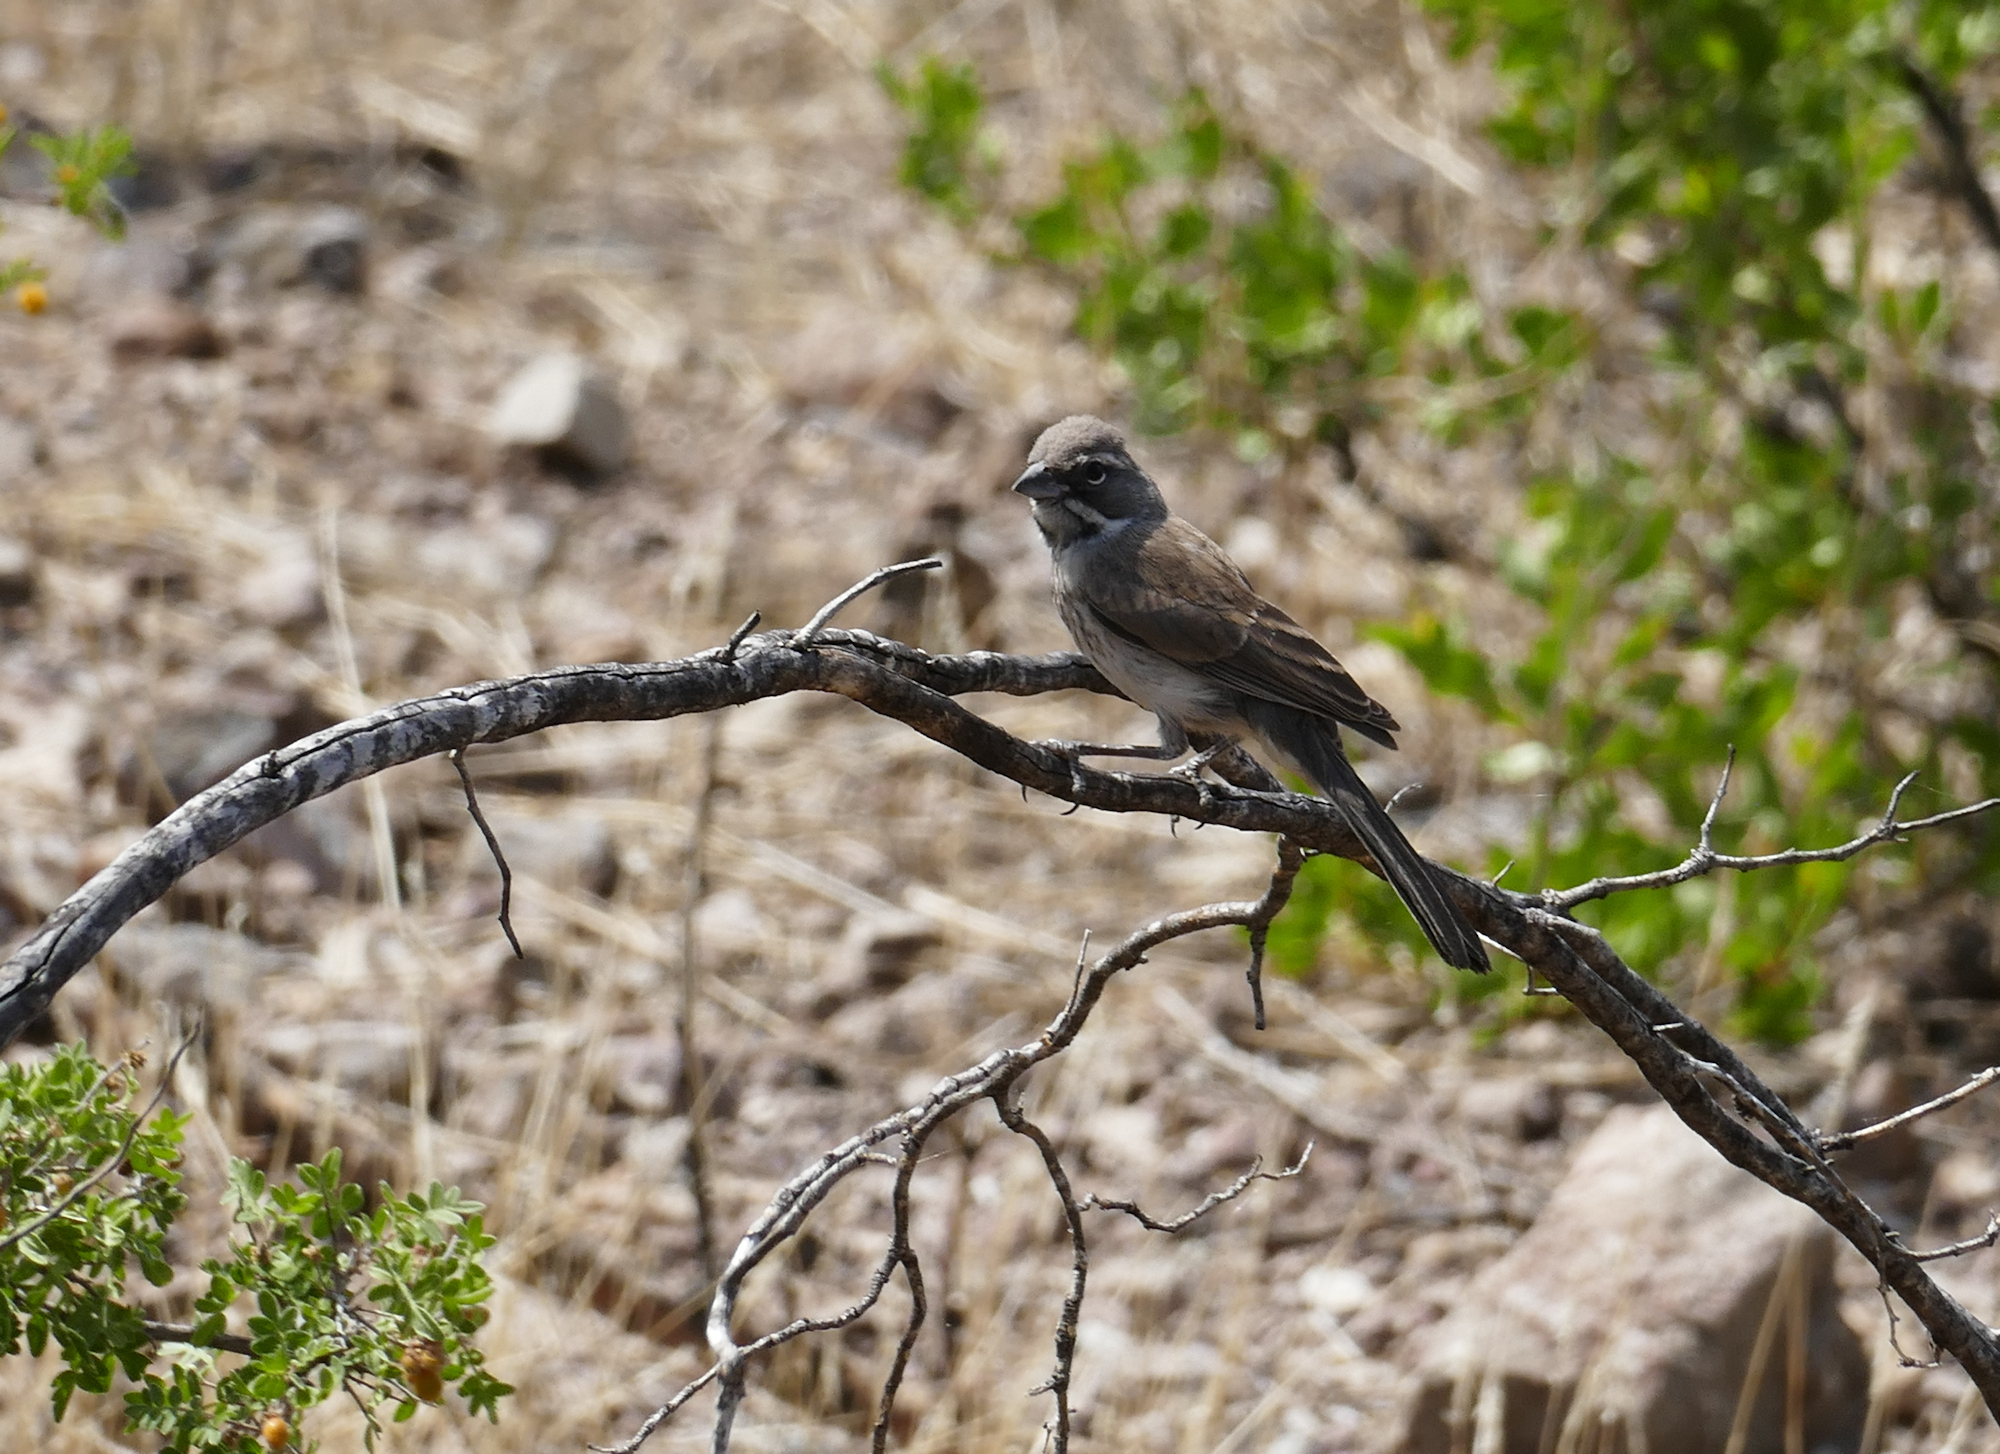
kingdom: Animalia
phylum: Chordata
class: Aves
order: Passeriformes
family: Passerellidae
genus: Amphispiza
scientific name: Amphispiza bilineata
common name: Black-throated sparrow
